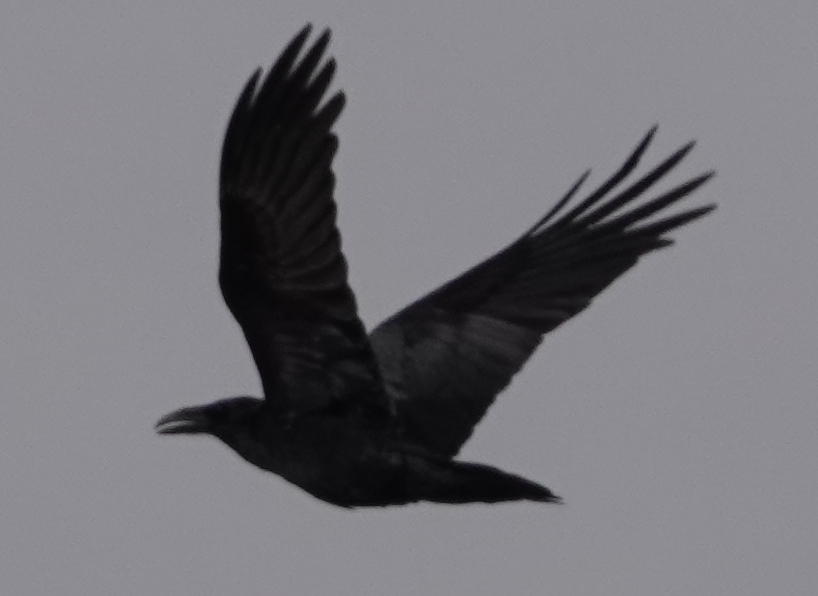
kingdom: Animalia
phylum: Chordata
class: Aves
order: Passeriformes
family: Corvidae
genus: Corvus
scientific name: Corvus corax
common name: Common raven
